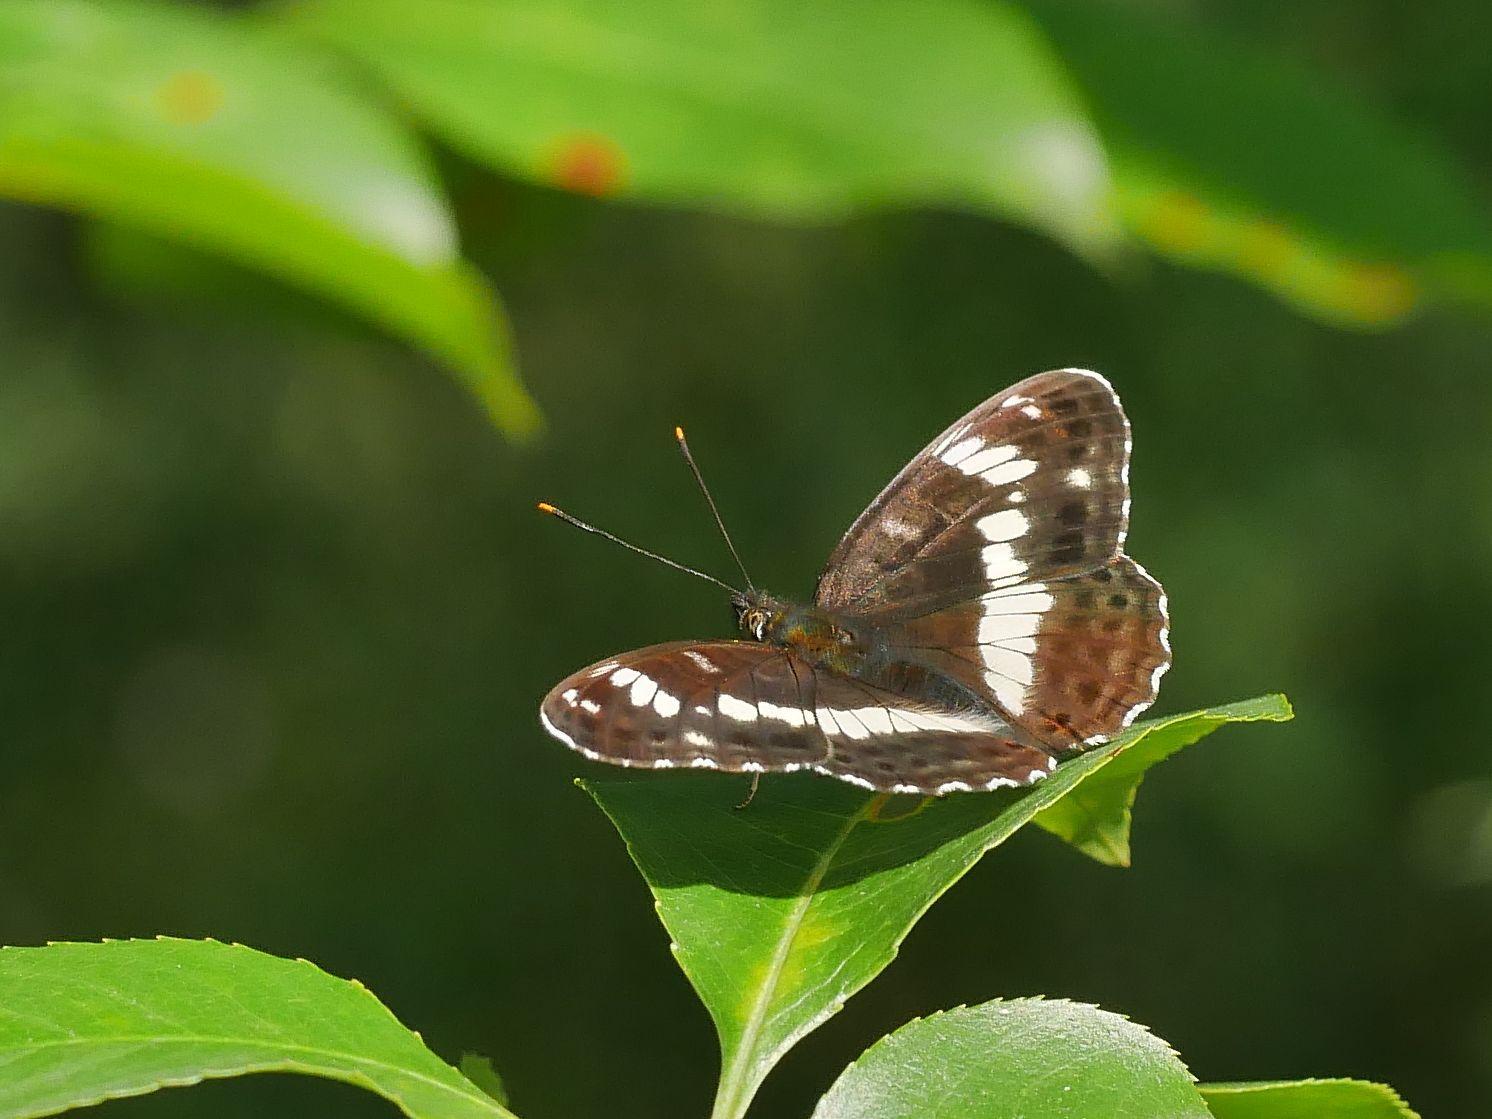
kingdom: Animalia
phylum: Arthropoda
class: Insecta
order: Lepidoptera
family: Nymphalidae
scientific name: Nymphalidae
